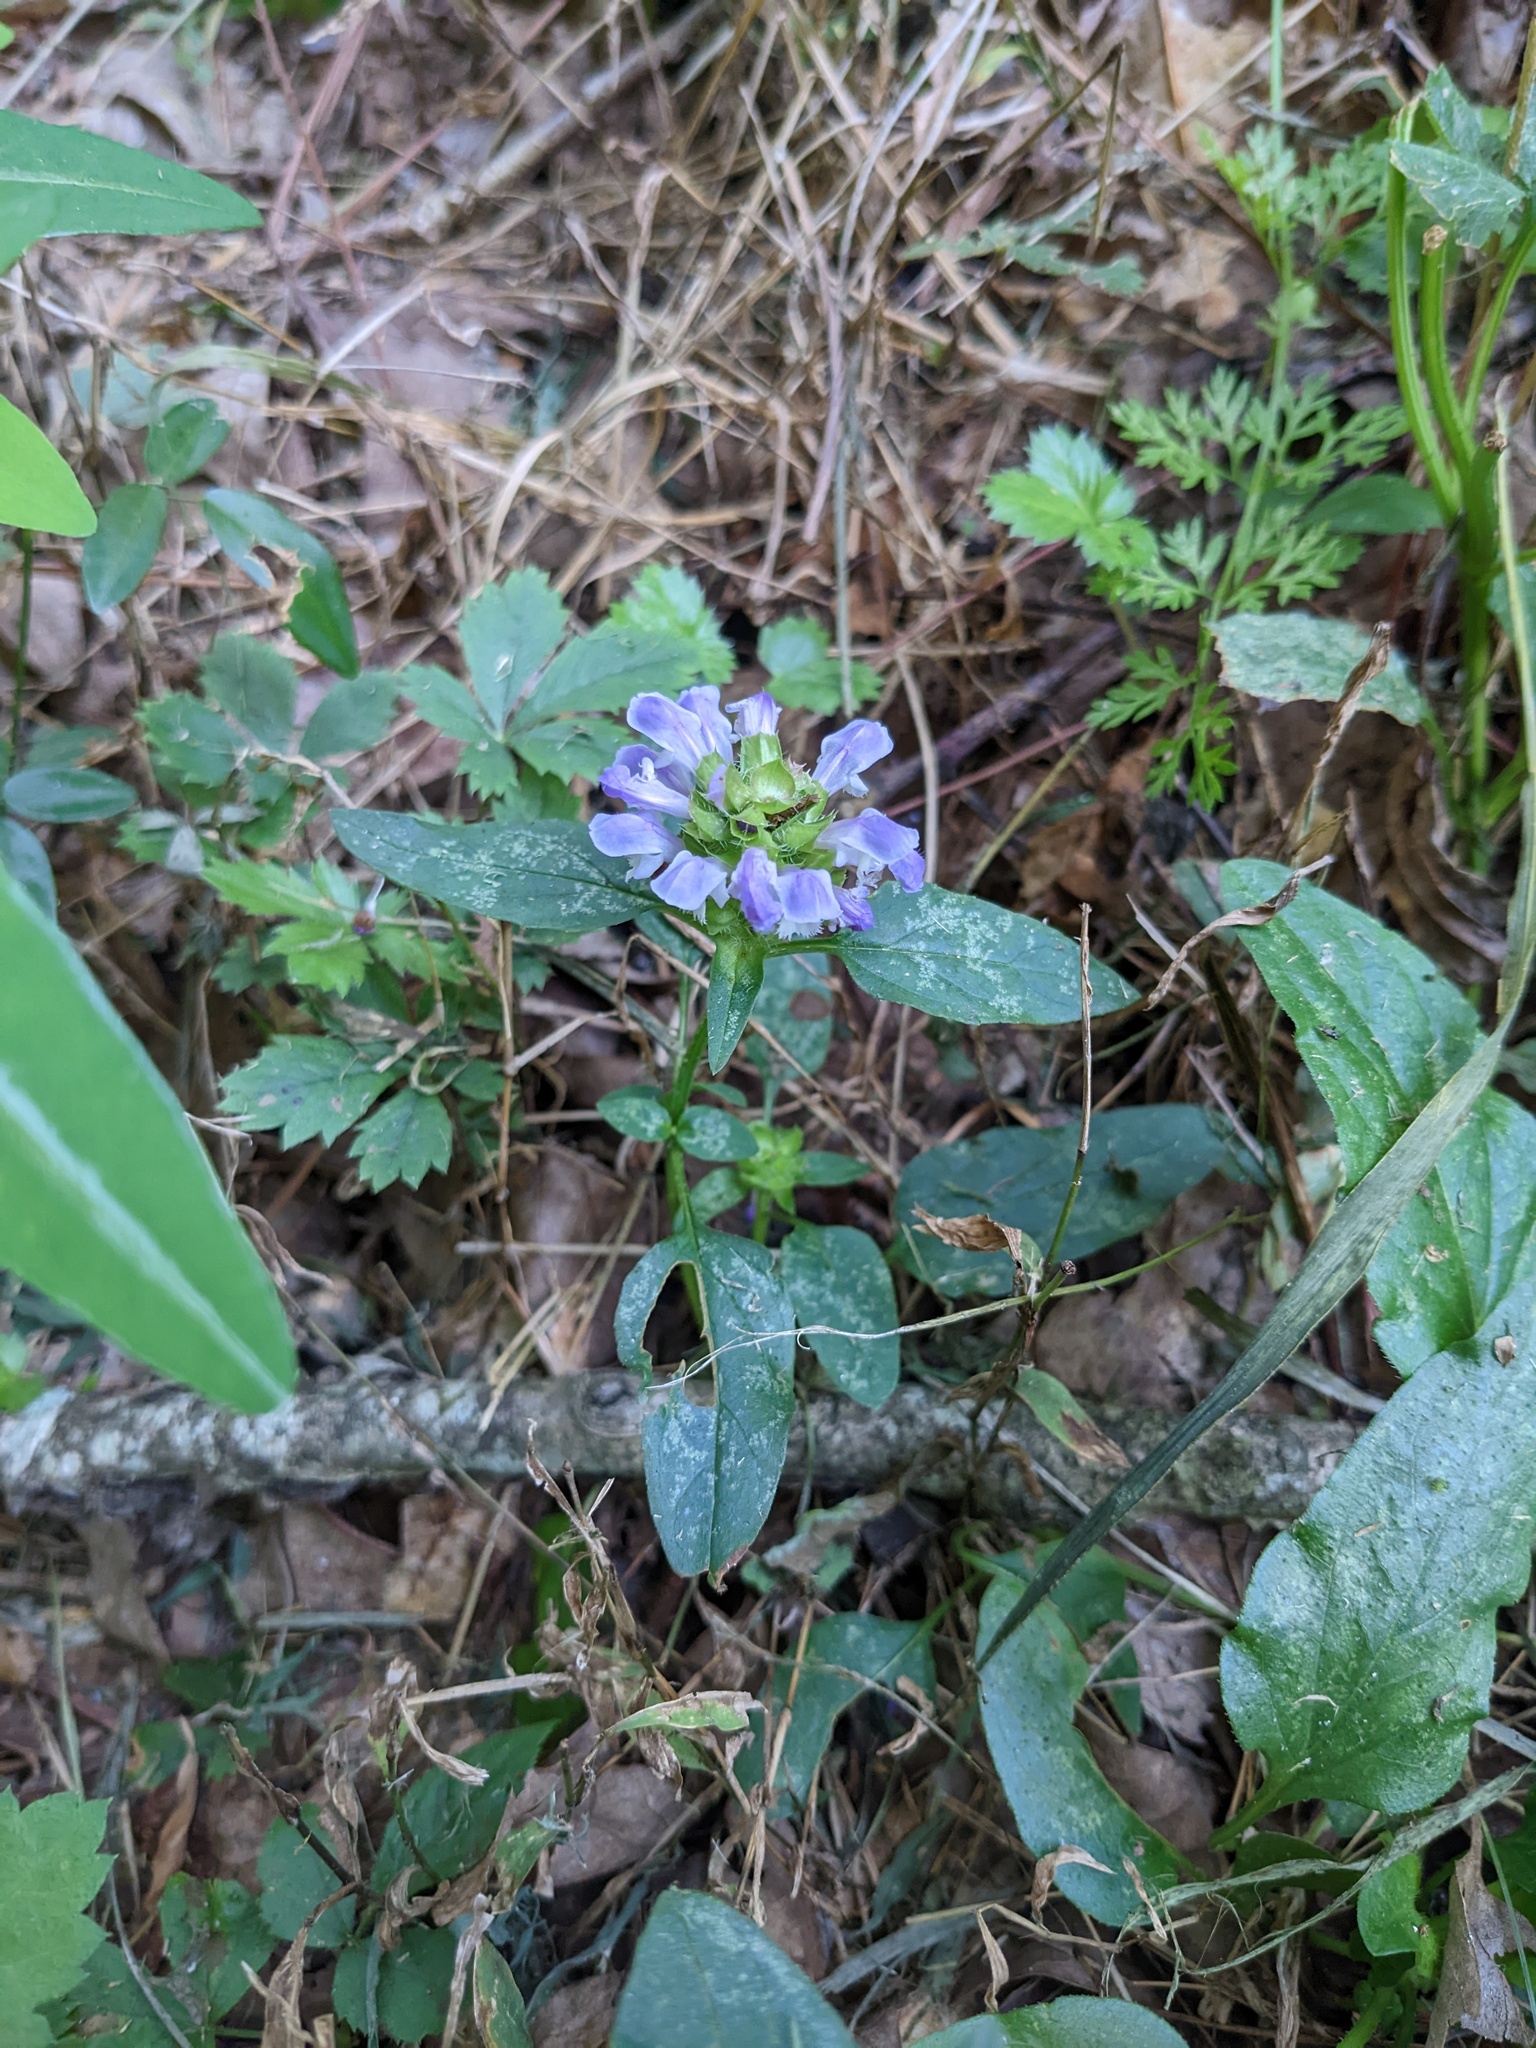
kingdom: Plantae
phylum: Tracheophyta
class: Magnoliopsida
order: Lamiales
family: Lamiaceae
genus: Prunella
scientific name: Prunella vulgaris
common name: Heal-all
